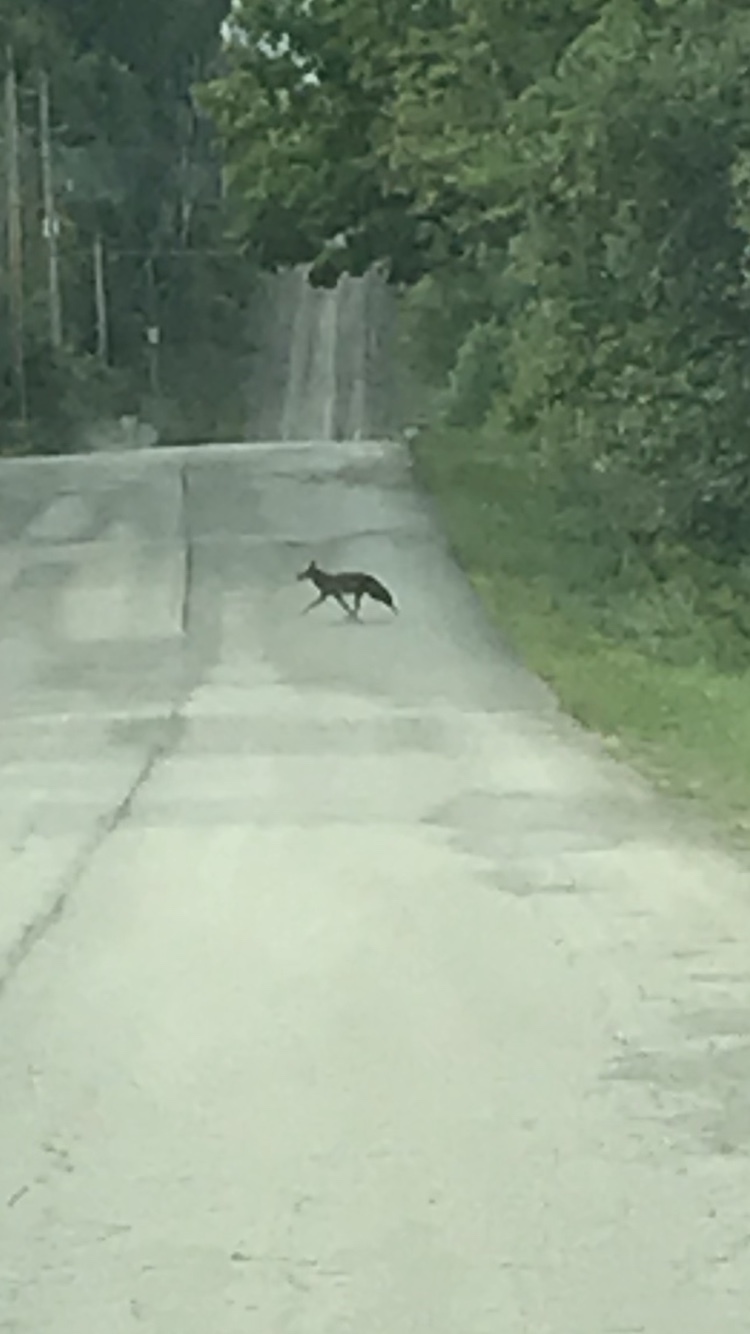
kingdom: Animalia
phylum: Chordata
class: Mammalia
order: Carnivora
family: Canidae
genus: Canis
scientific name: Canis latrans
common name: Coyote
